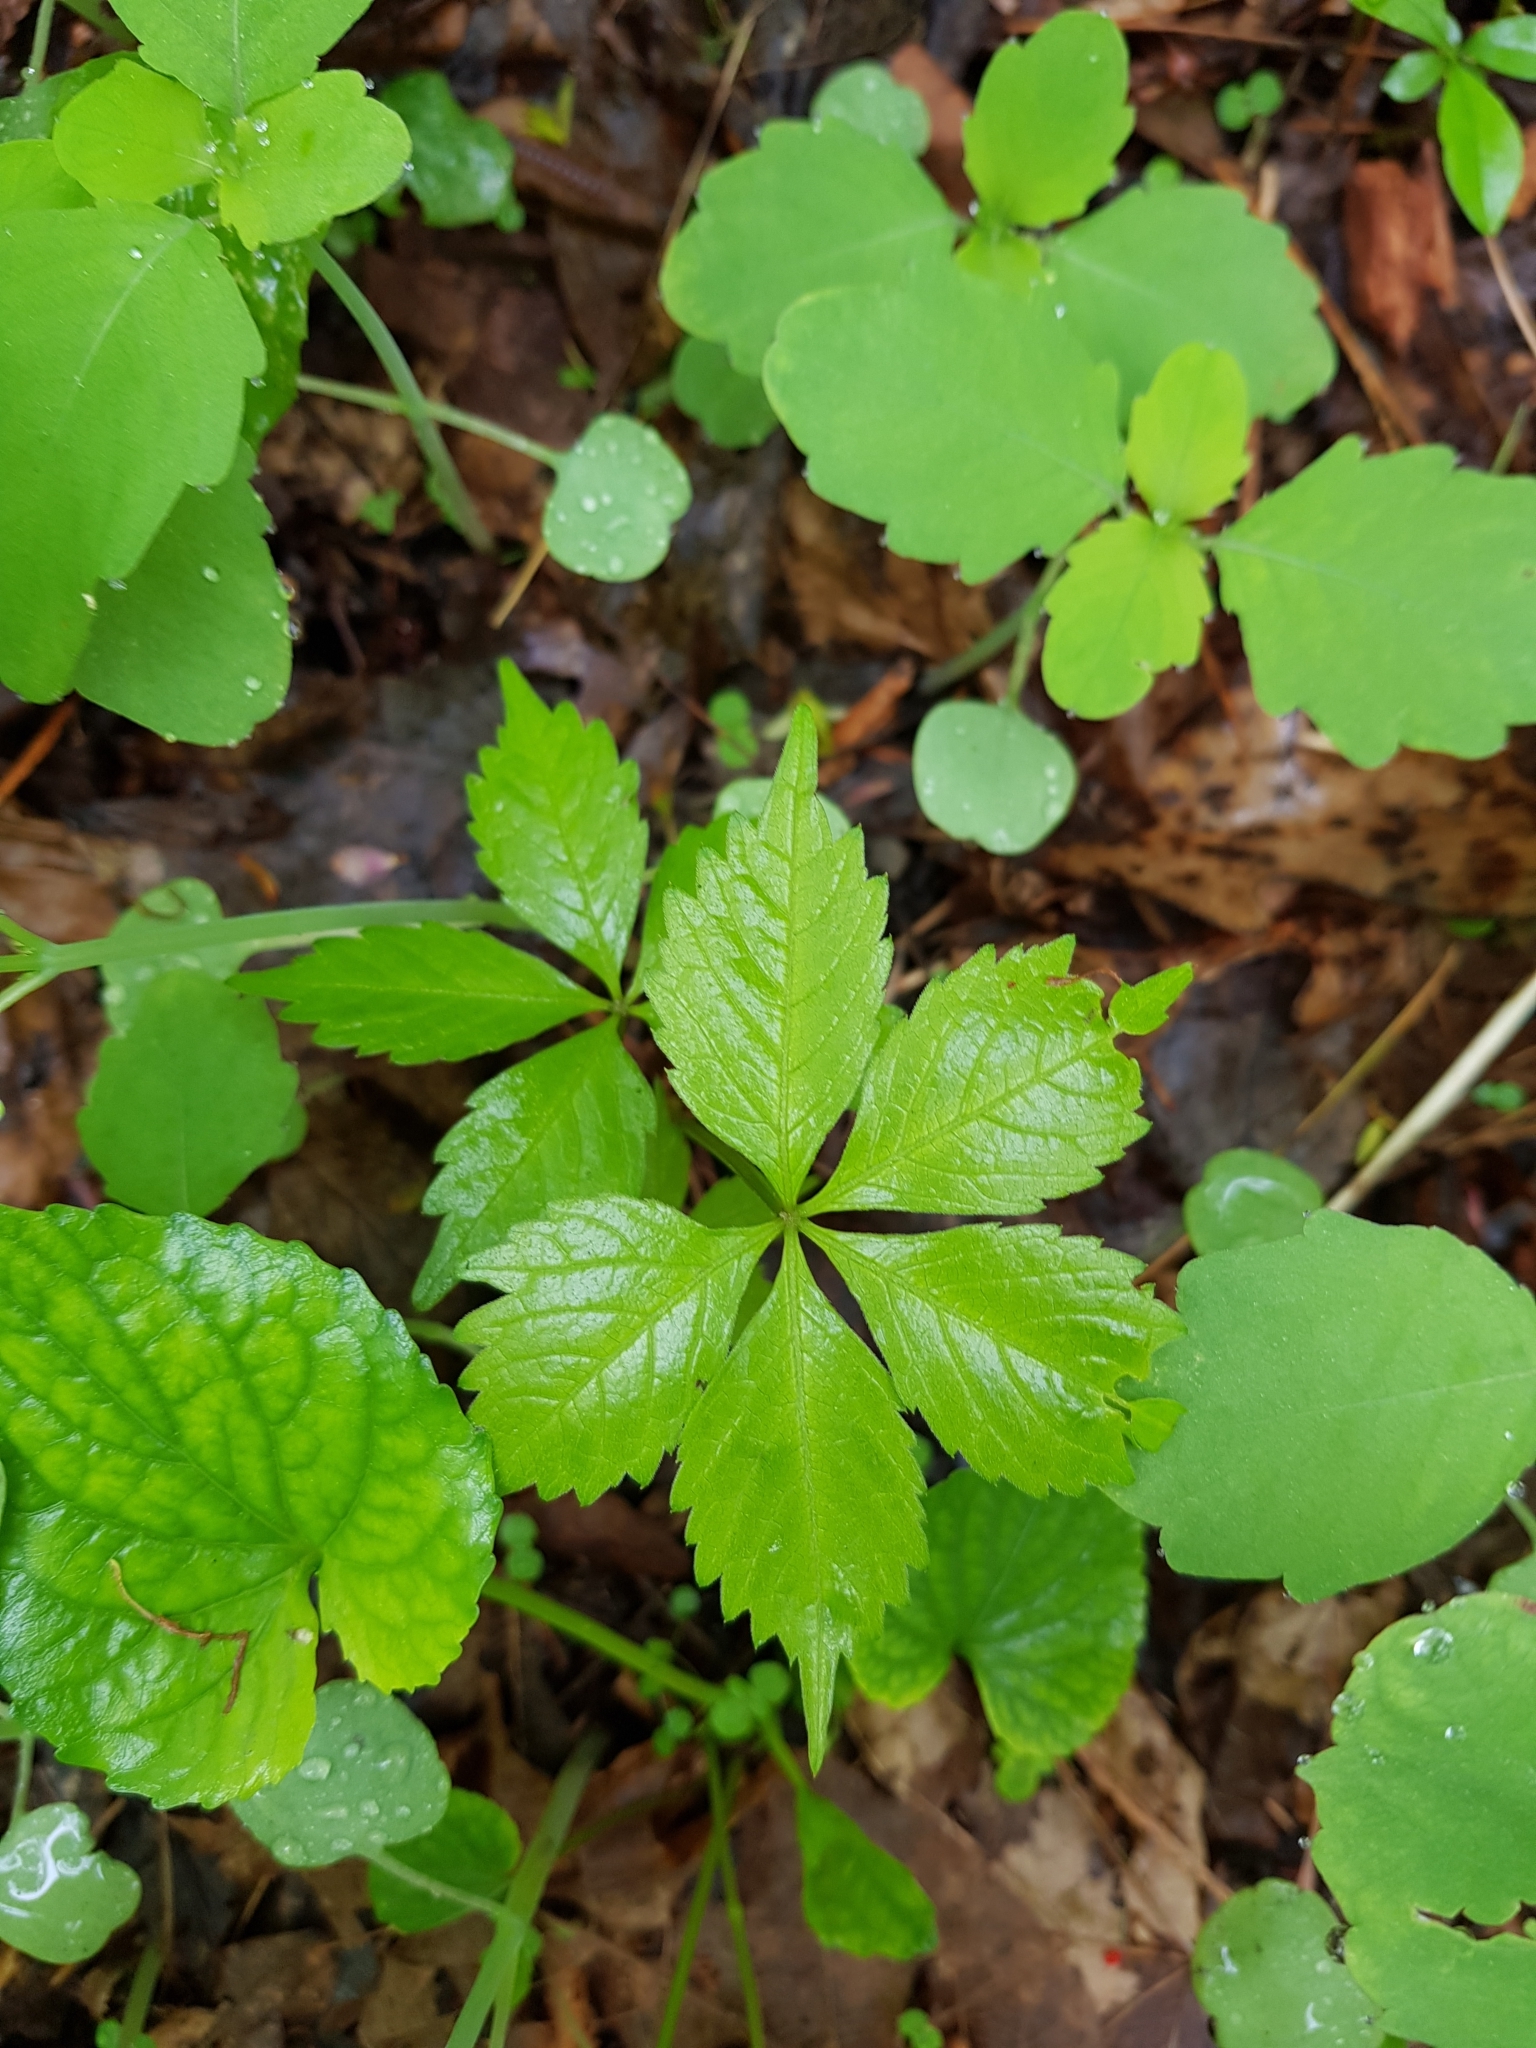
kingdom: Plantae
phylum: Tracheophyta
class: Magnoliopsida
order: Vitales
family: Vitaceae
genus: Parthenocissus
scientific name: Parthenocissus quinquefolia
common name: Virginia-creeper
